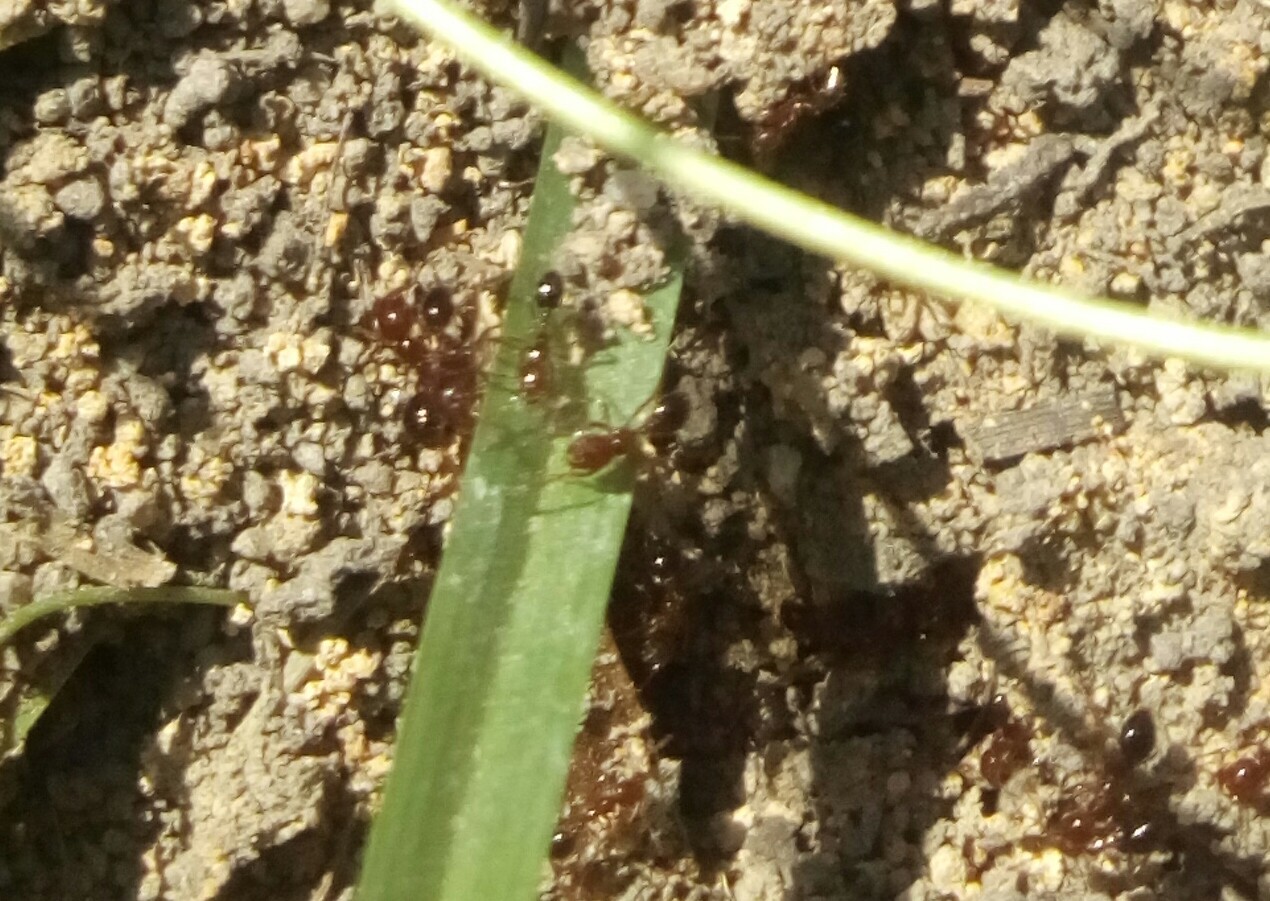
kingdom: Animalia
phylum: Arthropoda
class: Insecta
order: Hymenoptera
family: Formicidae
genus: Solenopsis
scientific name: Solenopsis invicta
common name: Red imported fire ant
